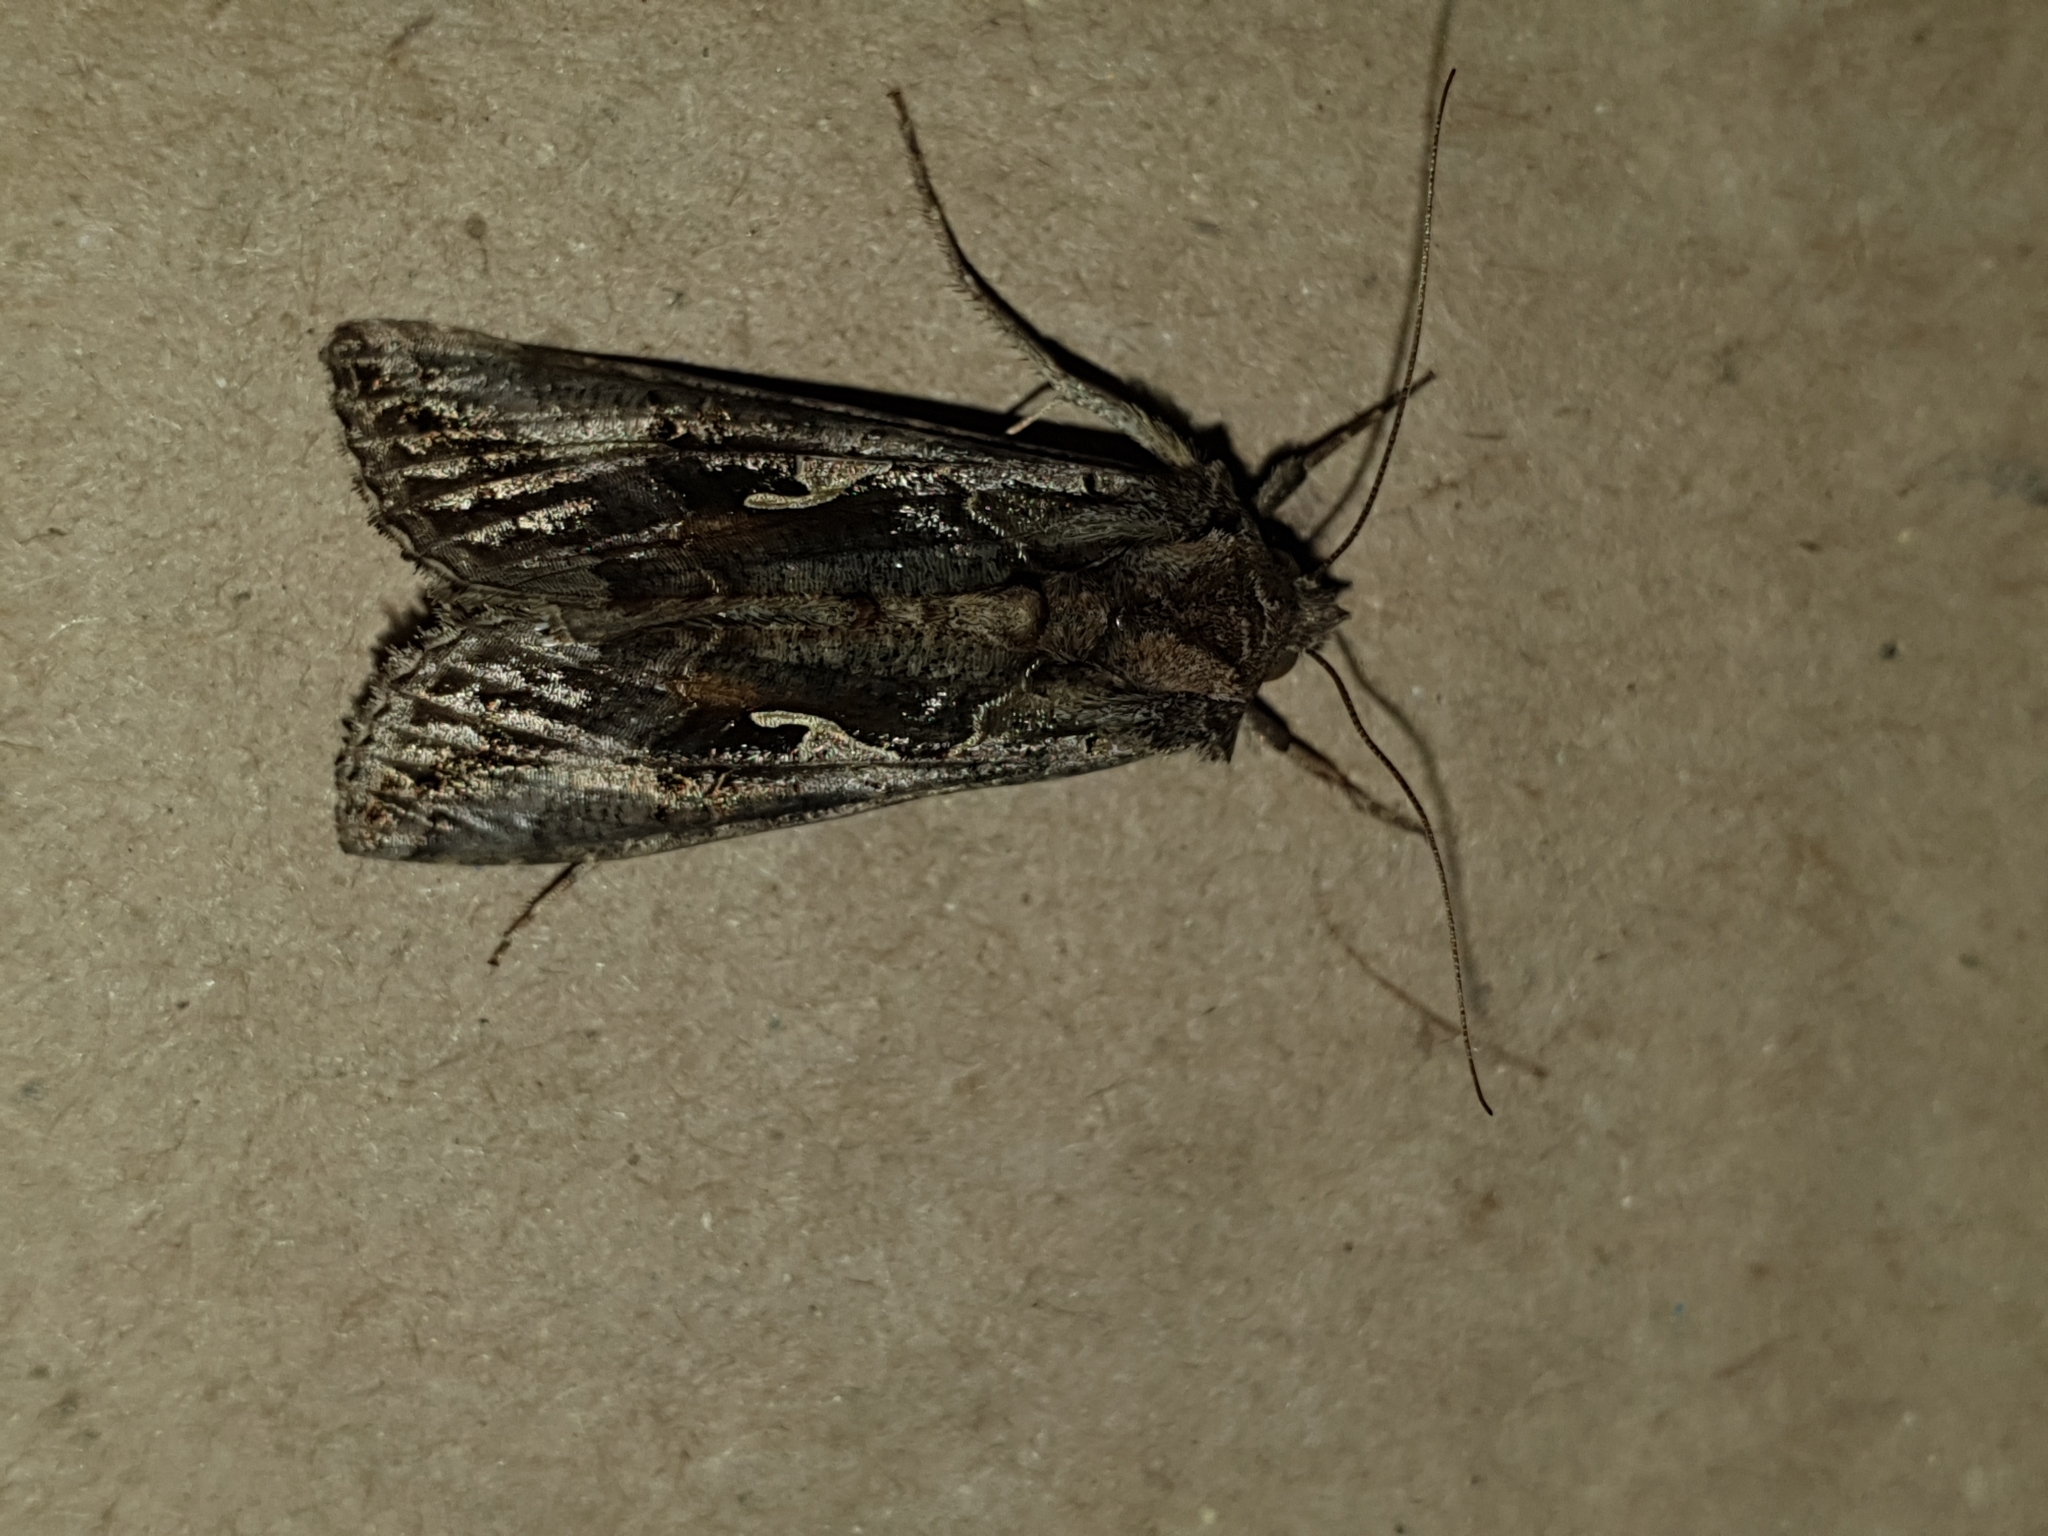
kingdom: Animalia
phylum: Arthropoda
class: Insecta
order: Lepidoptera
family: Noctuidae
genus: Autographa
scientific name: Autographa gamma
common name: Silver y
